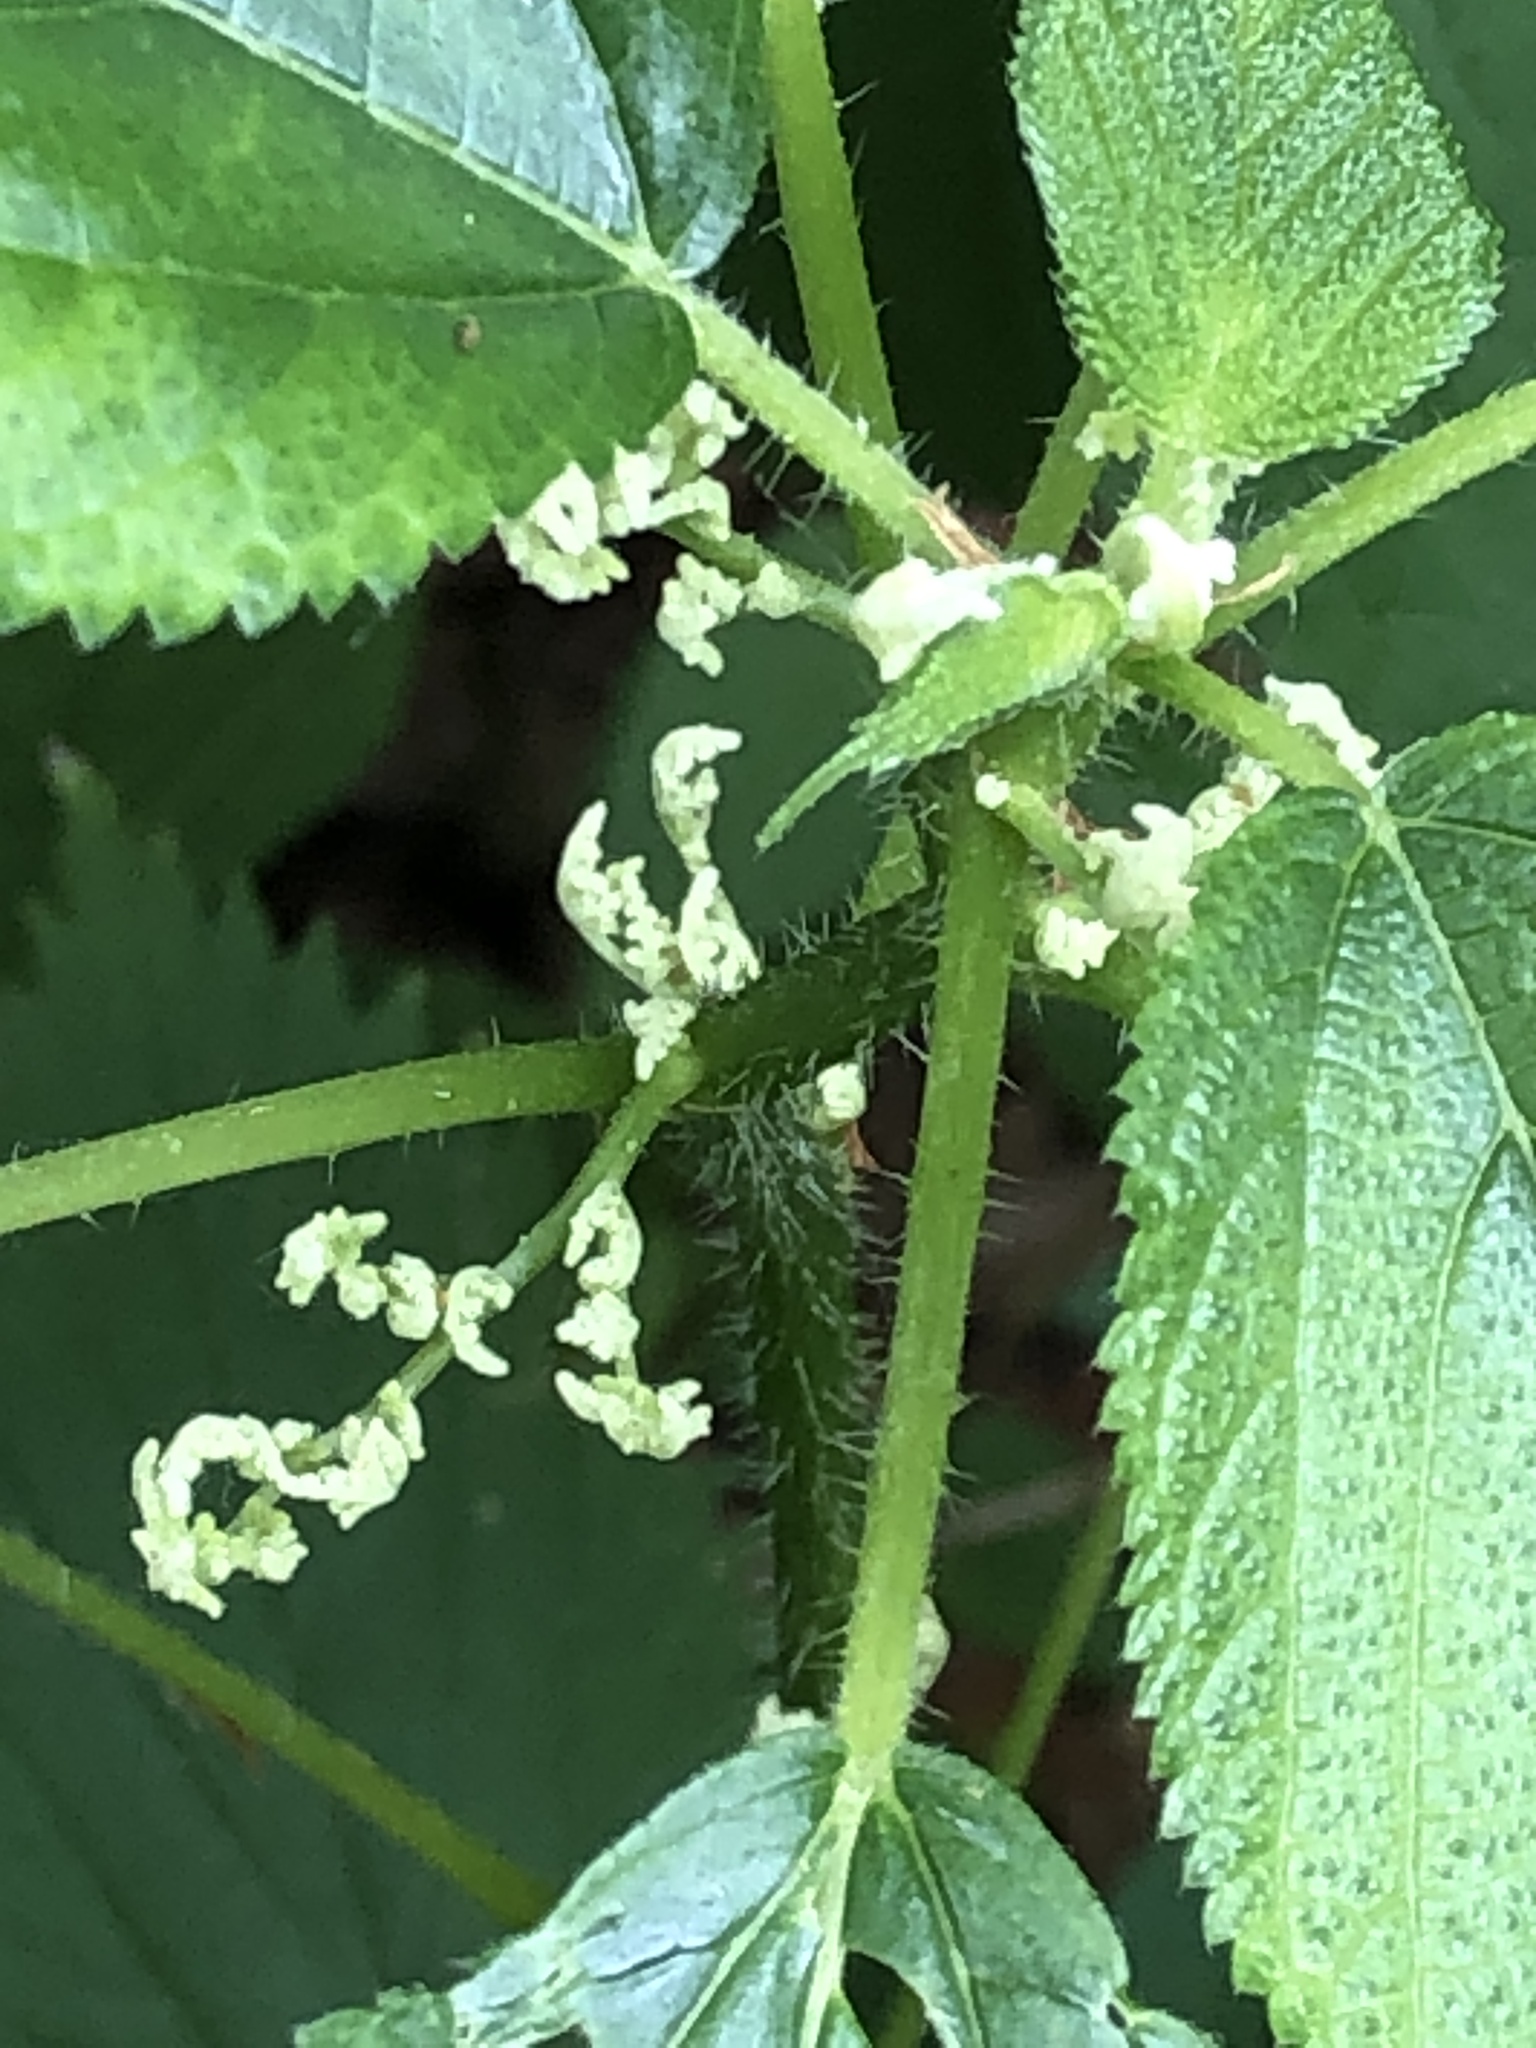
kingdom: Plantae
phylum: Tracheophyta
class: Magnoliopsida
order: Rosales
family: Urticaceae
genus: Laportea
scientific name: Laportea canadensis
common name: Canada nettle
